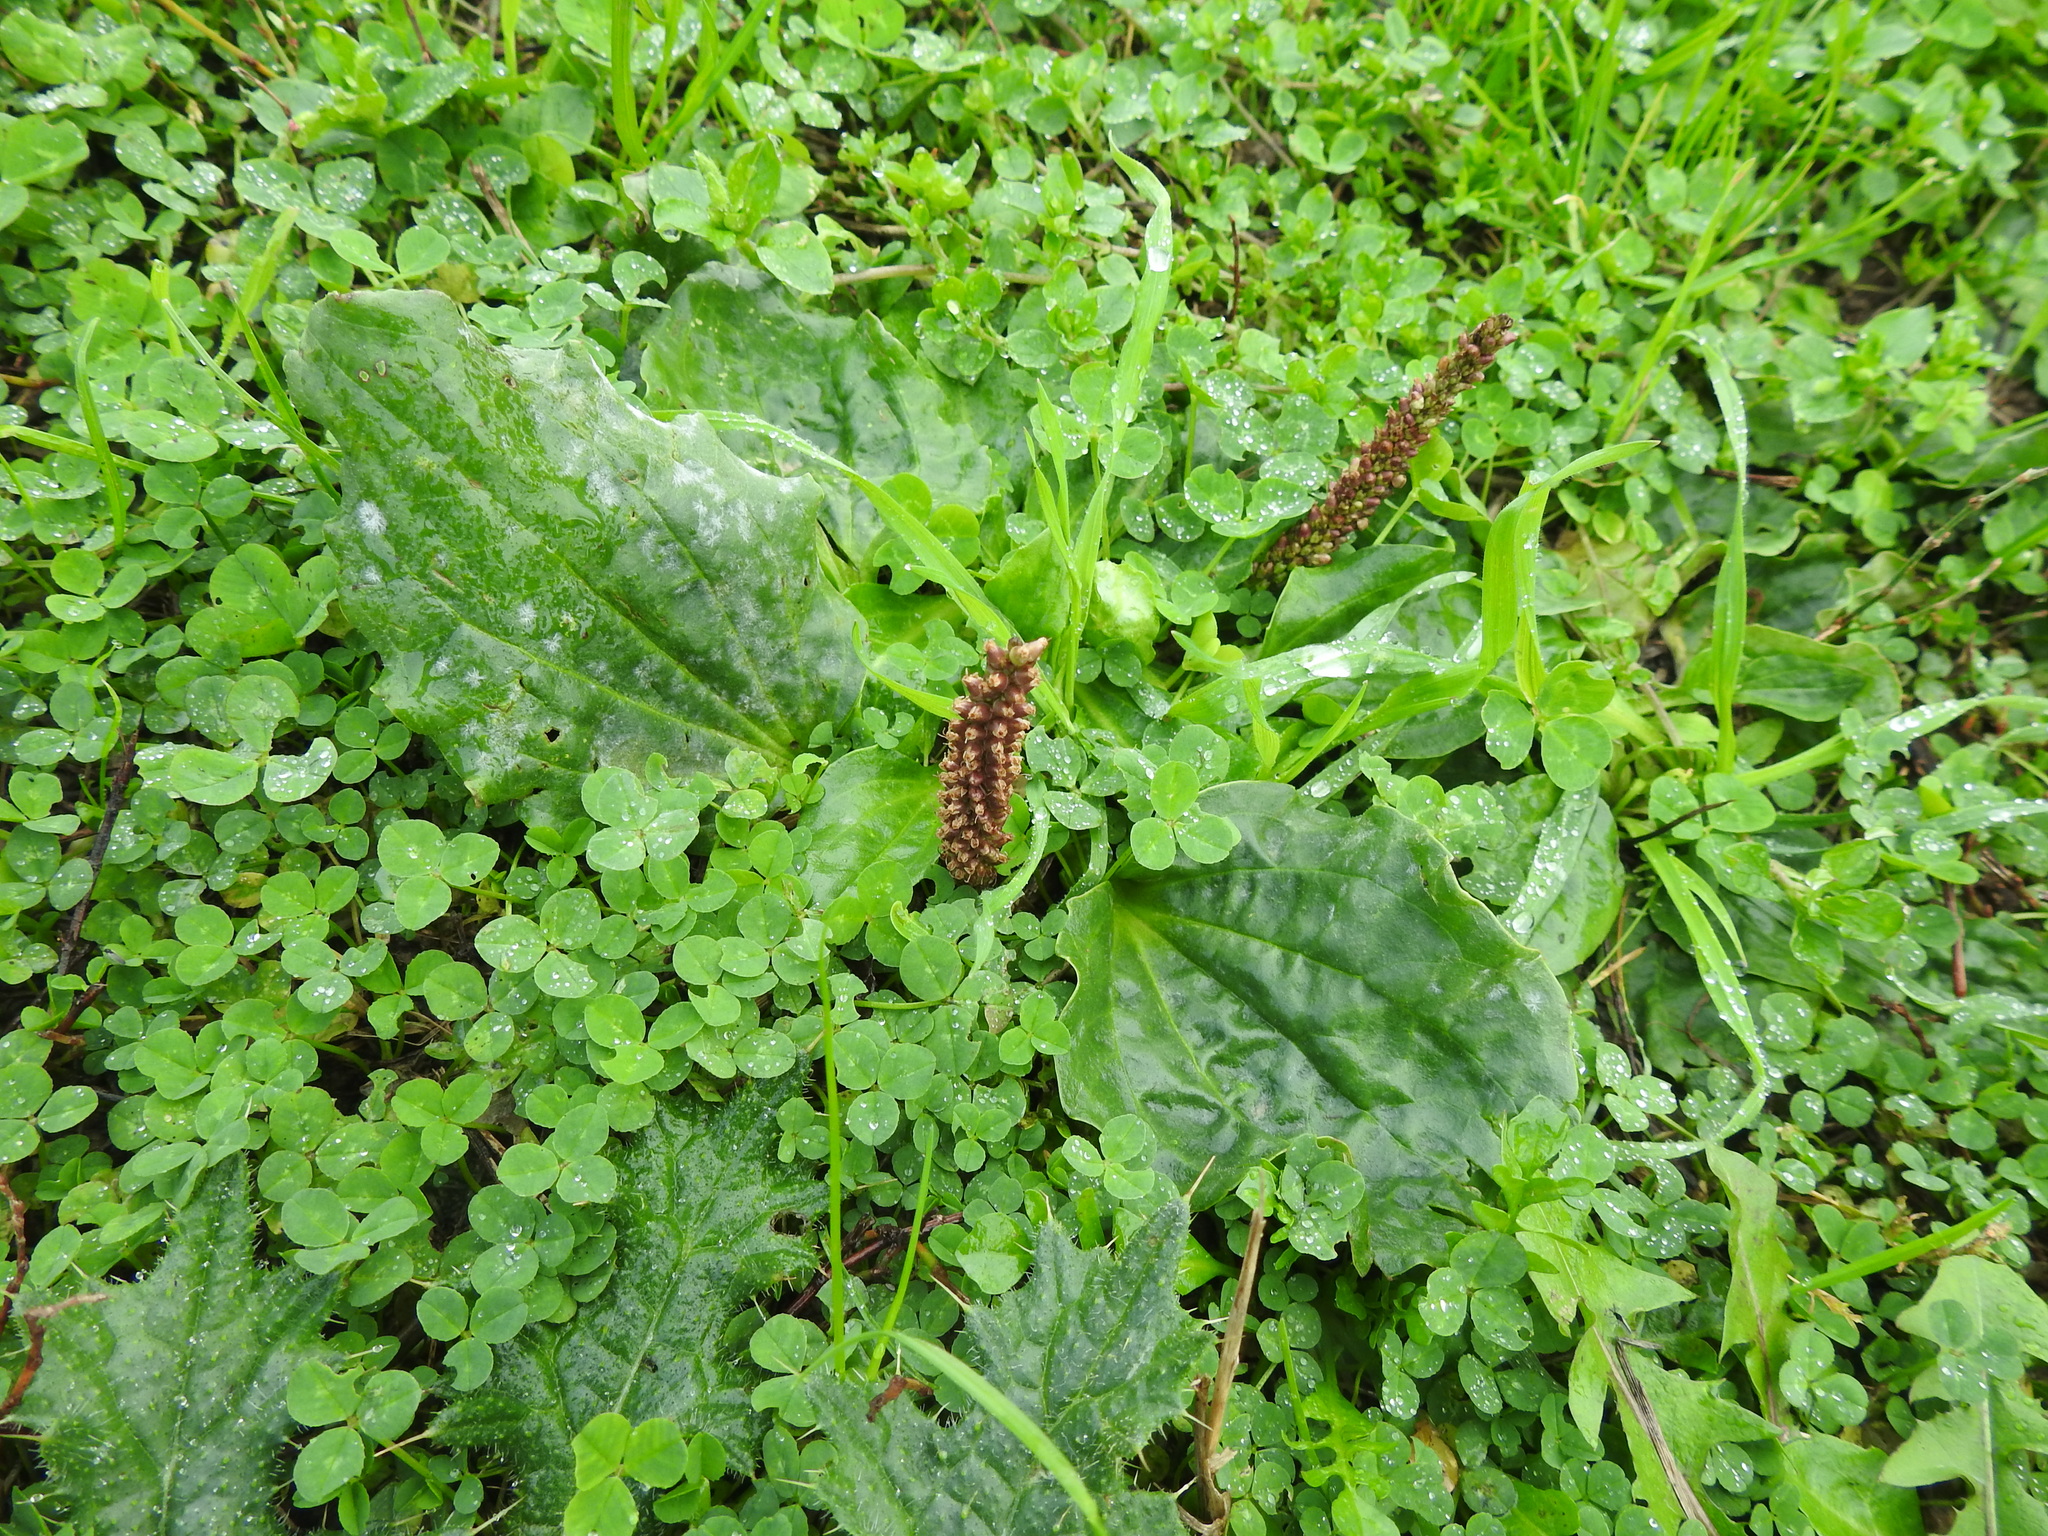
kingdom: Plantae
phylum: Tracheophyta
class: Magnoliopsida
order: Lamiales
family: Plantaginaceae
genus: Plantago
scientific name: Plantago major
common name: Common plantain
